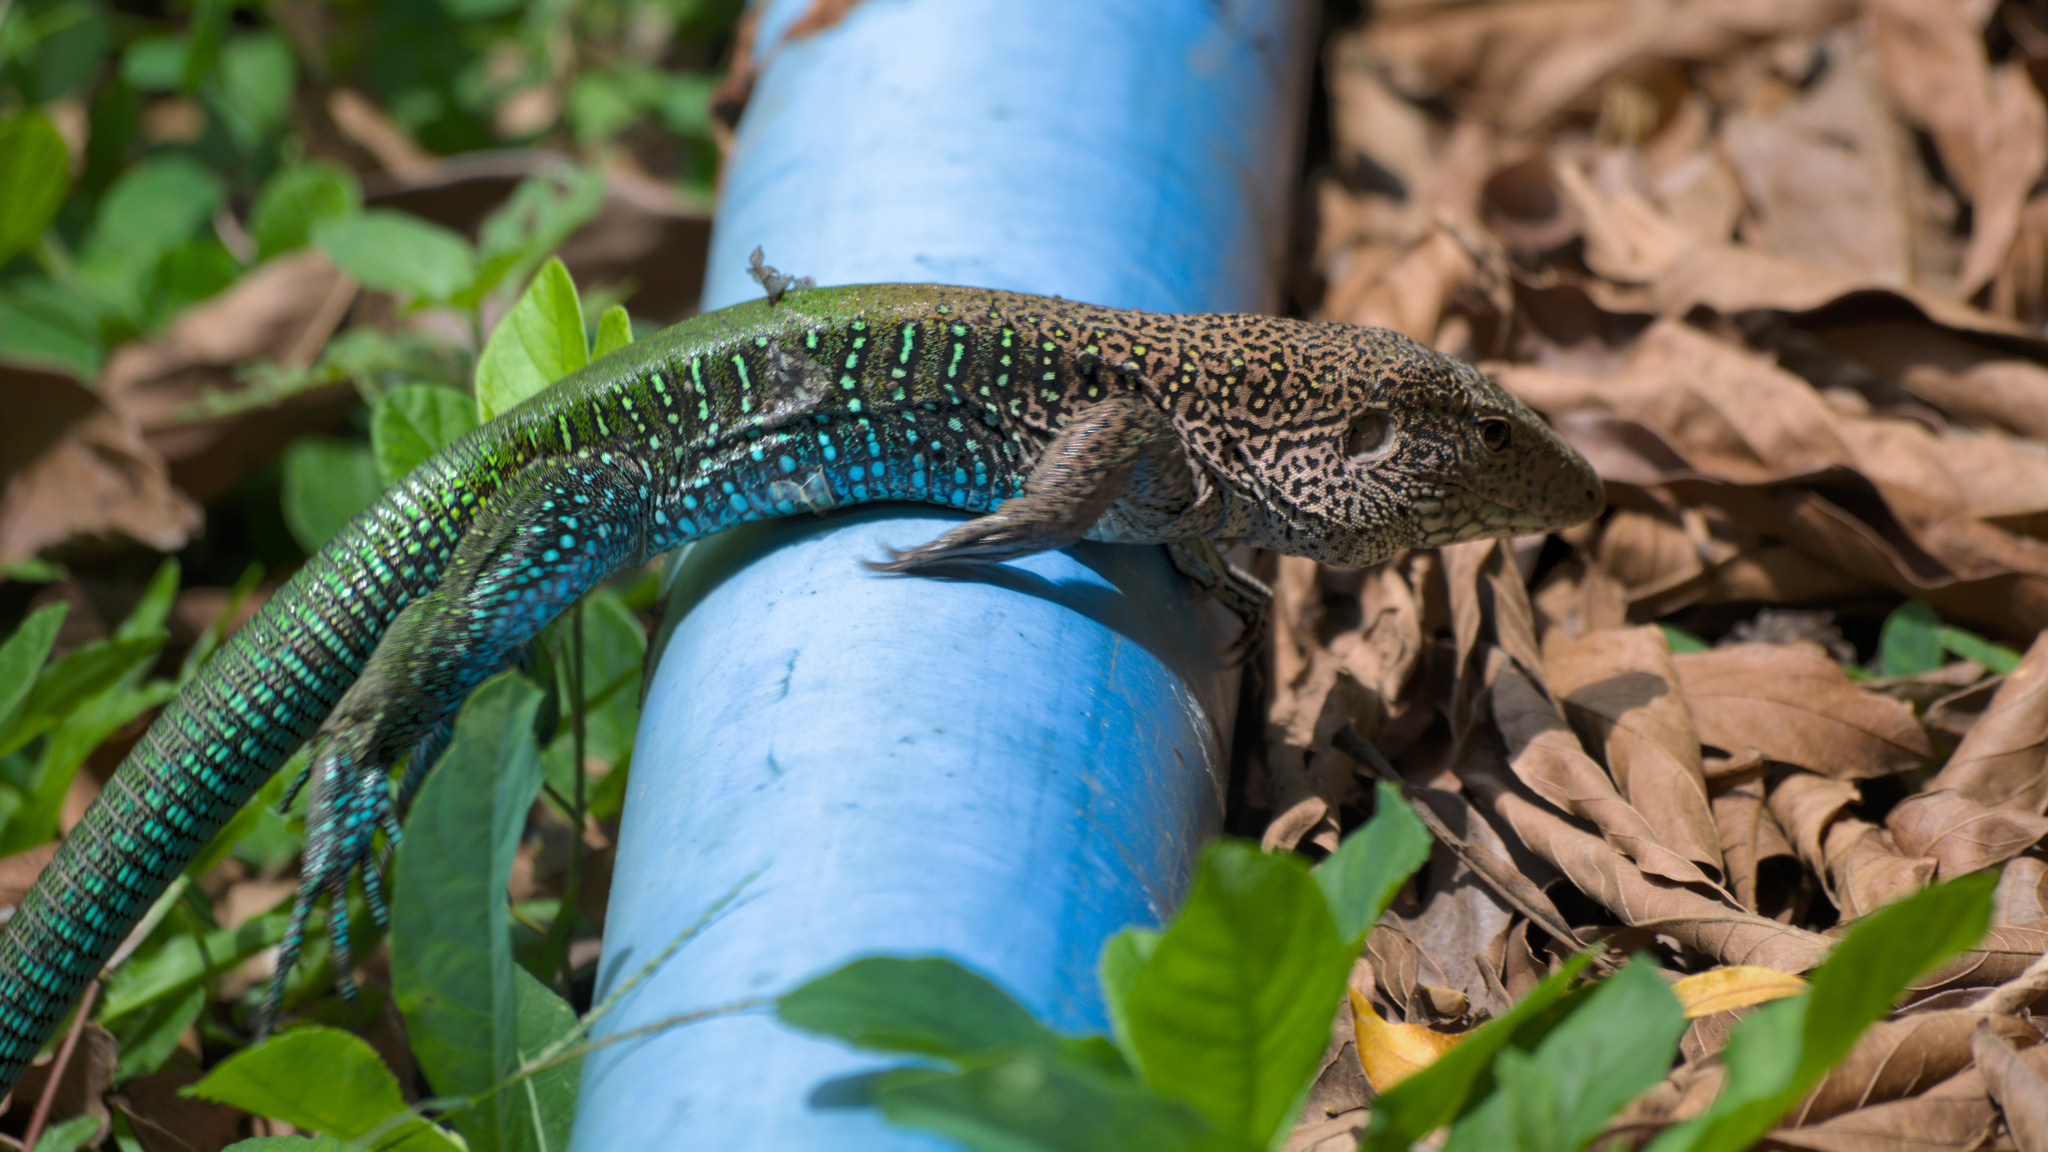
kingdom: Animalia
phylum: Chordata
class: Squamata
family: Teiidae
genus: Ameiva
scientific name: Ameiva ameiva
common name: Giant ameiva
